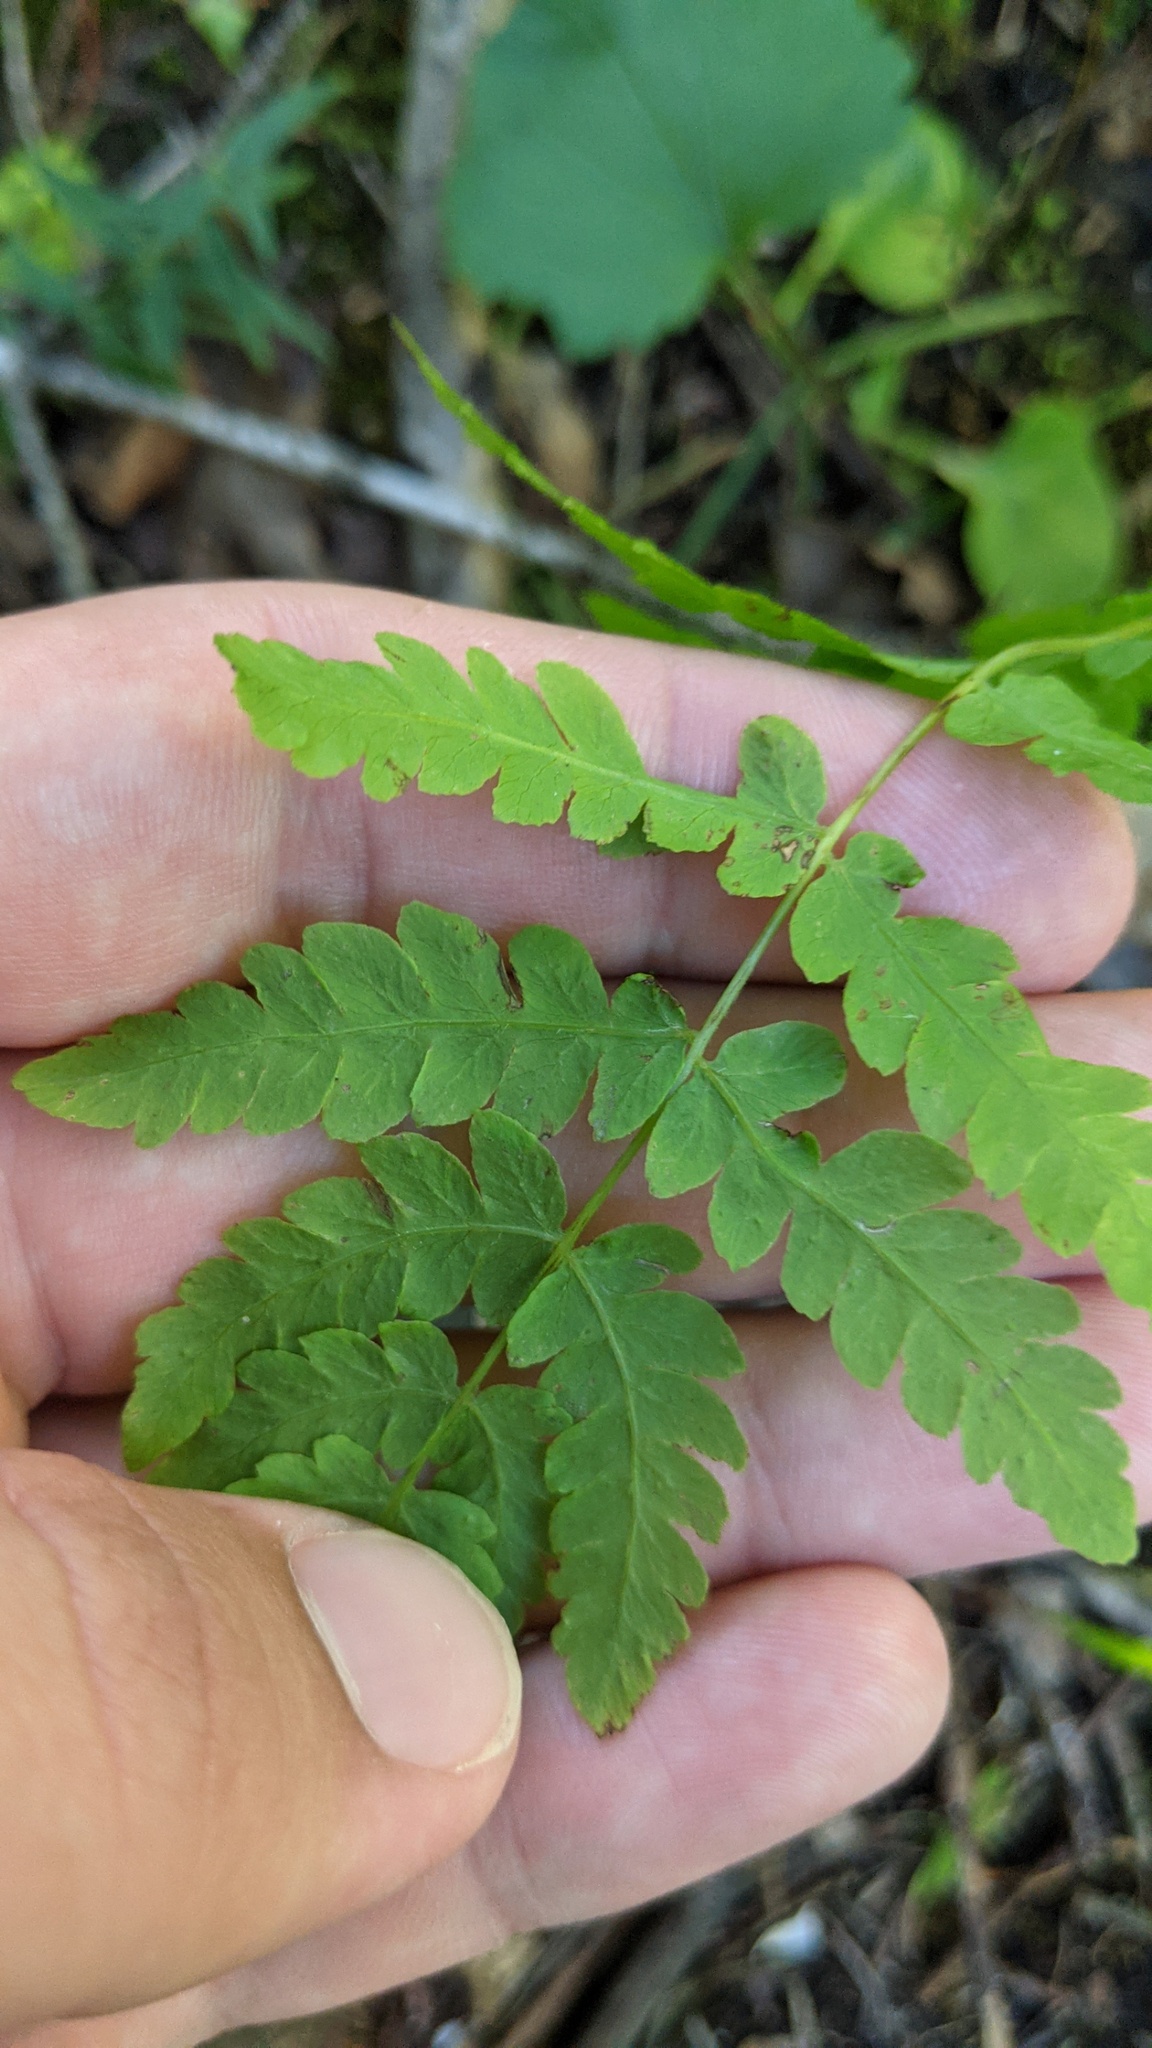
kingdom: Plantae
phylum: Tracheophyta
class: Polypodiopsida
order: Polypodiales
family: Thelypteridaceae
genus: Thelypteris
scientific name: Thelypteris palustris
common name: Marsh fern
